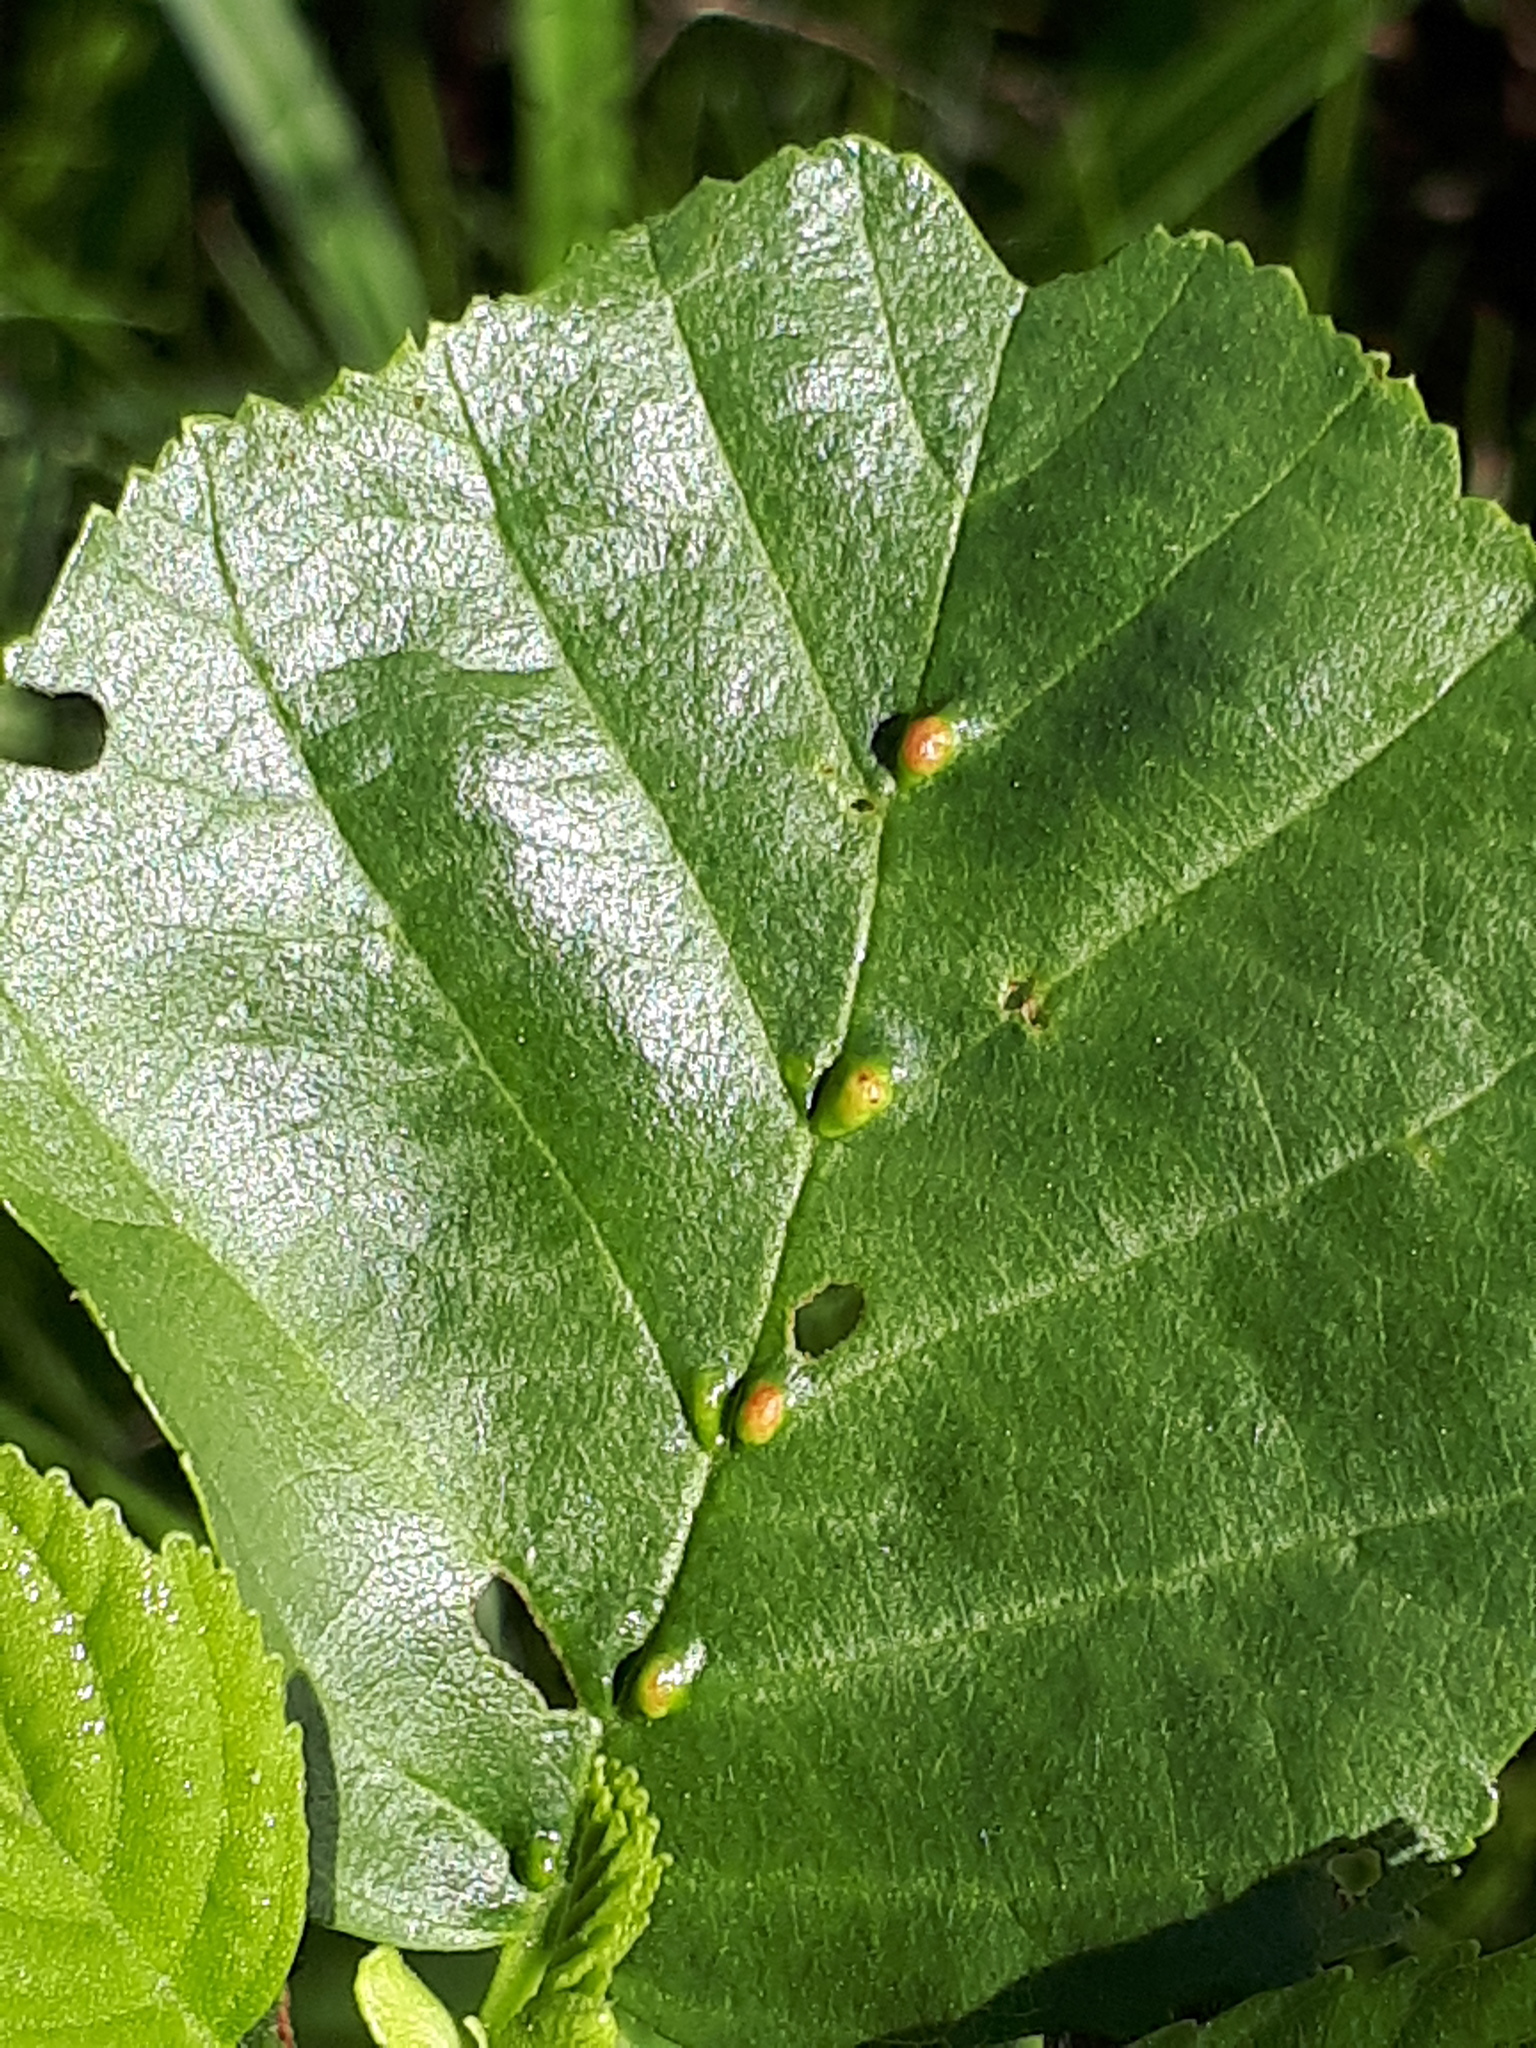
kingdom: Animalia
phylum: Arthropoda
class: Arachnida
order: Trombidiformes
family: Eriophyidae
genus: Eriophyes
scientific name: Eriophyes inangulis
